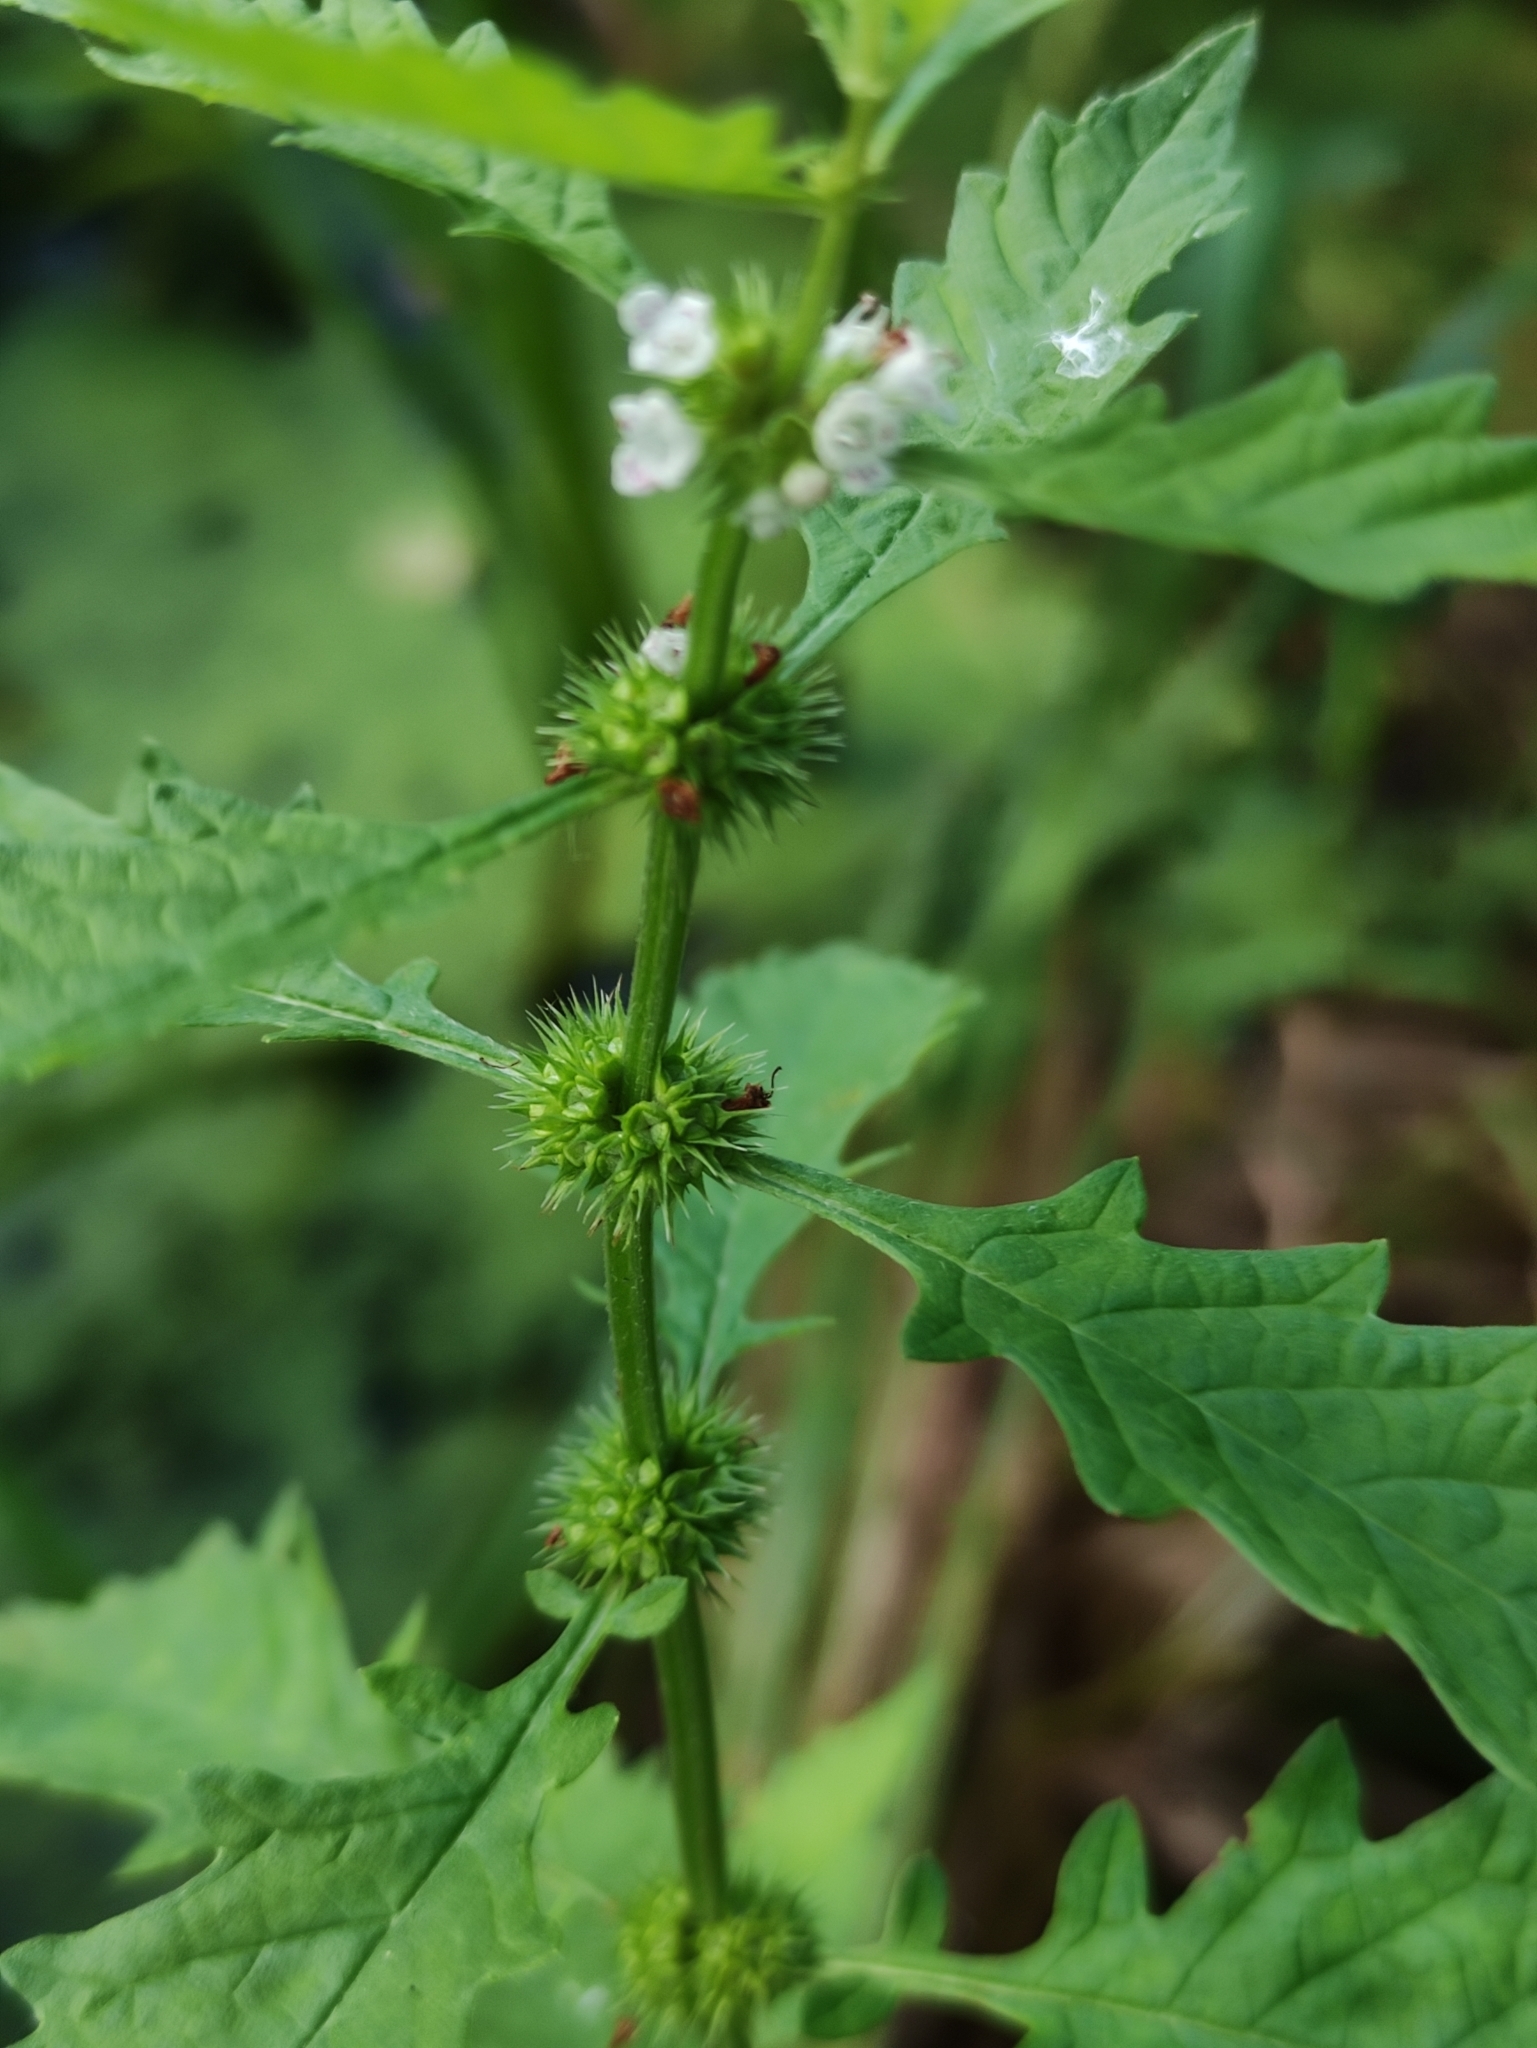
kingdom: Plantae
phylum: Tracheophyta
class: Magnoliopsida
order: Lamiales
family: Lamiaceae
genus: Lycopus
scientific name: Lycopus europaeus
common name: European bugleweed
